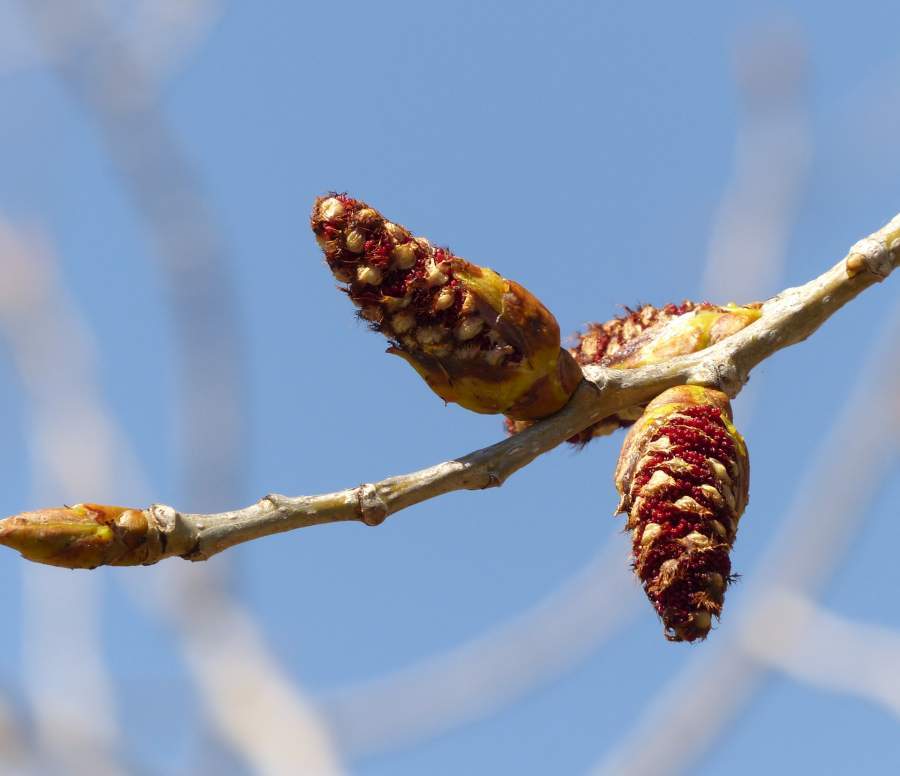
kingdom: Plantae
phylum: Tracheophyta
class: Magnoliopsida
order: Malpighiales
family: Salicaceae
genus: Populus
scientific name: Populus deltoides
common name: Eastern cottonwood
